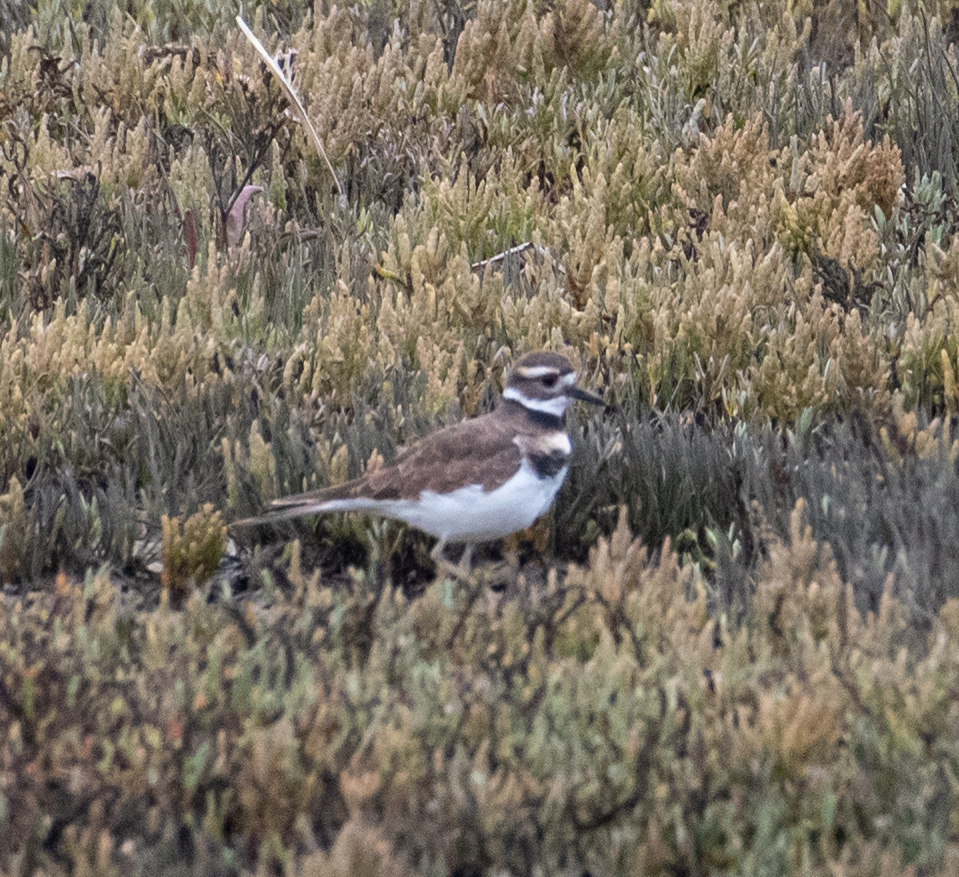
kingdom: Animalia
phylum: Chordata
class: Aves
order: Charadriiformes
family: Charadriidae
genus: Charadrius
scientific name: Charadrius vociferus
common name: Killdeer
